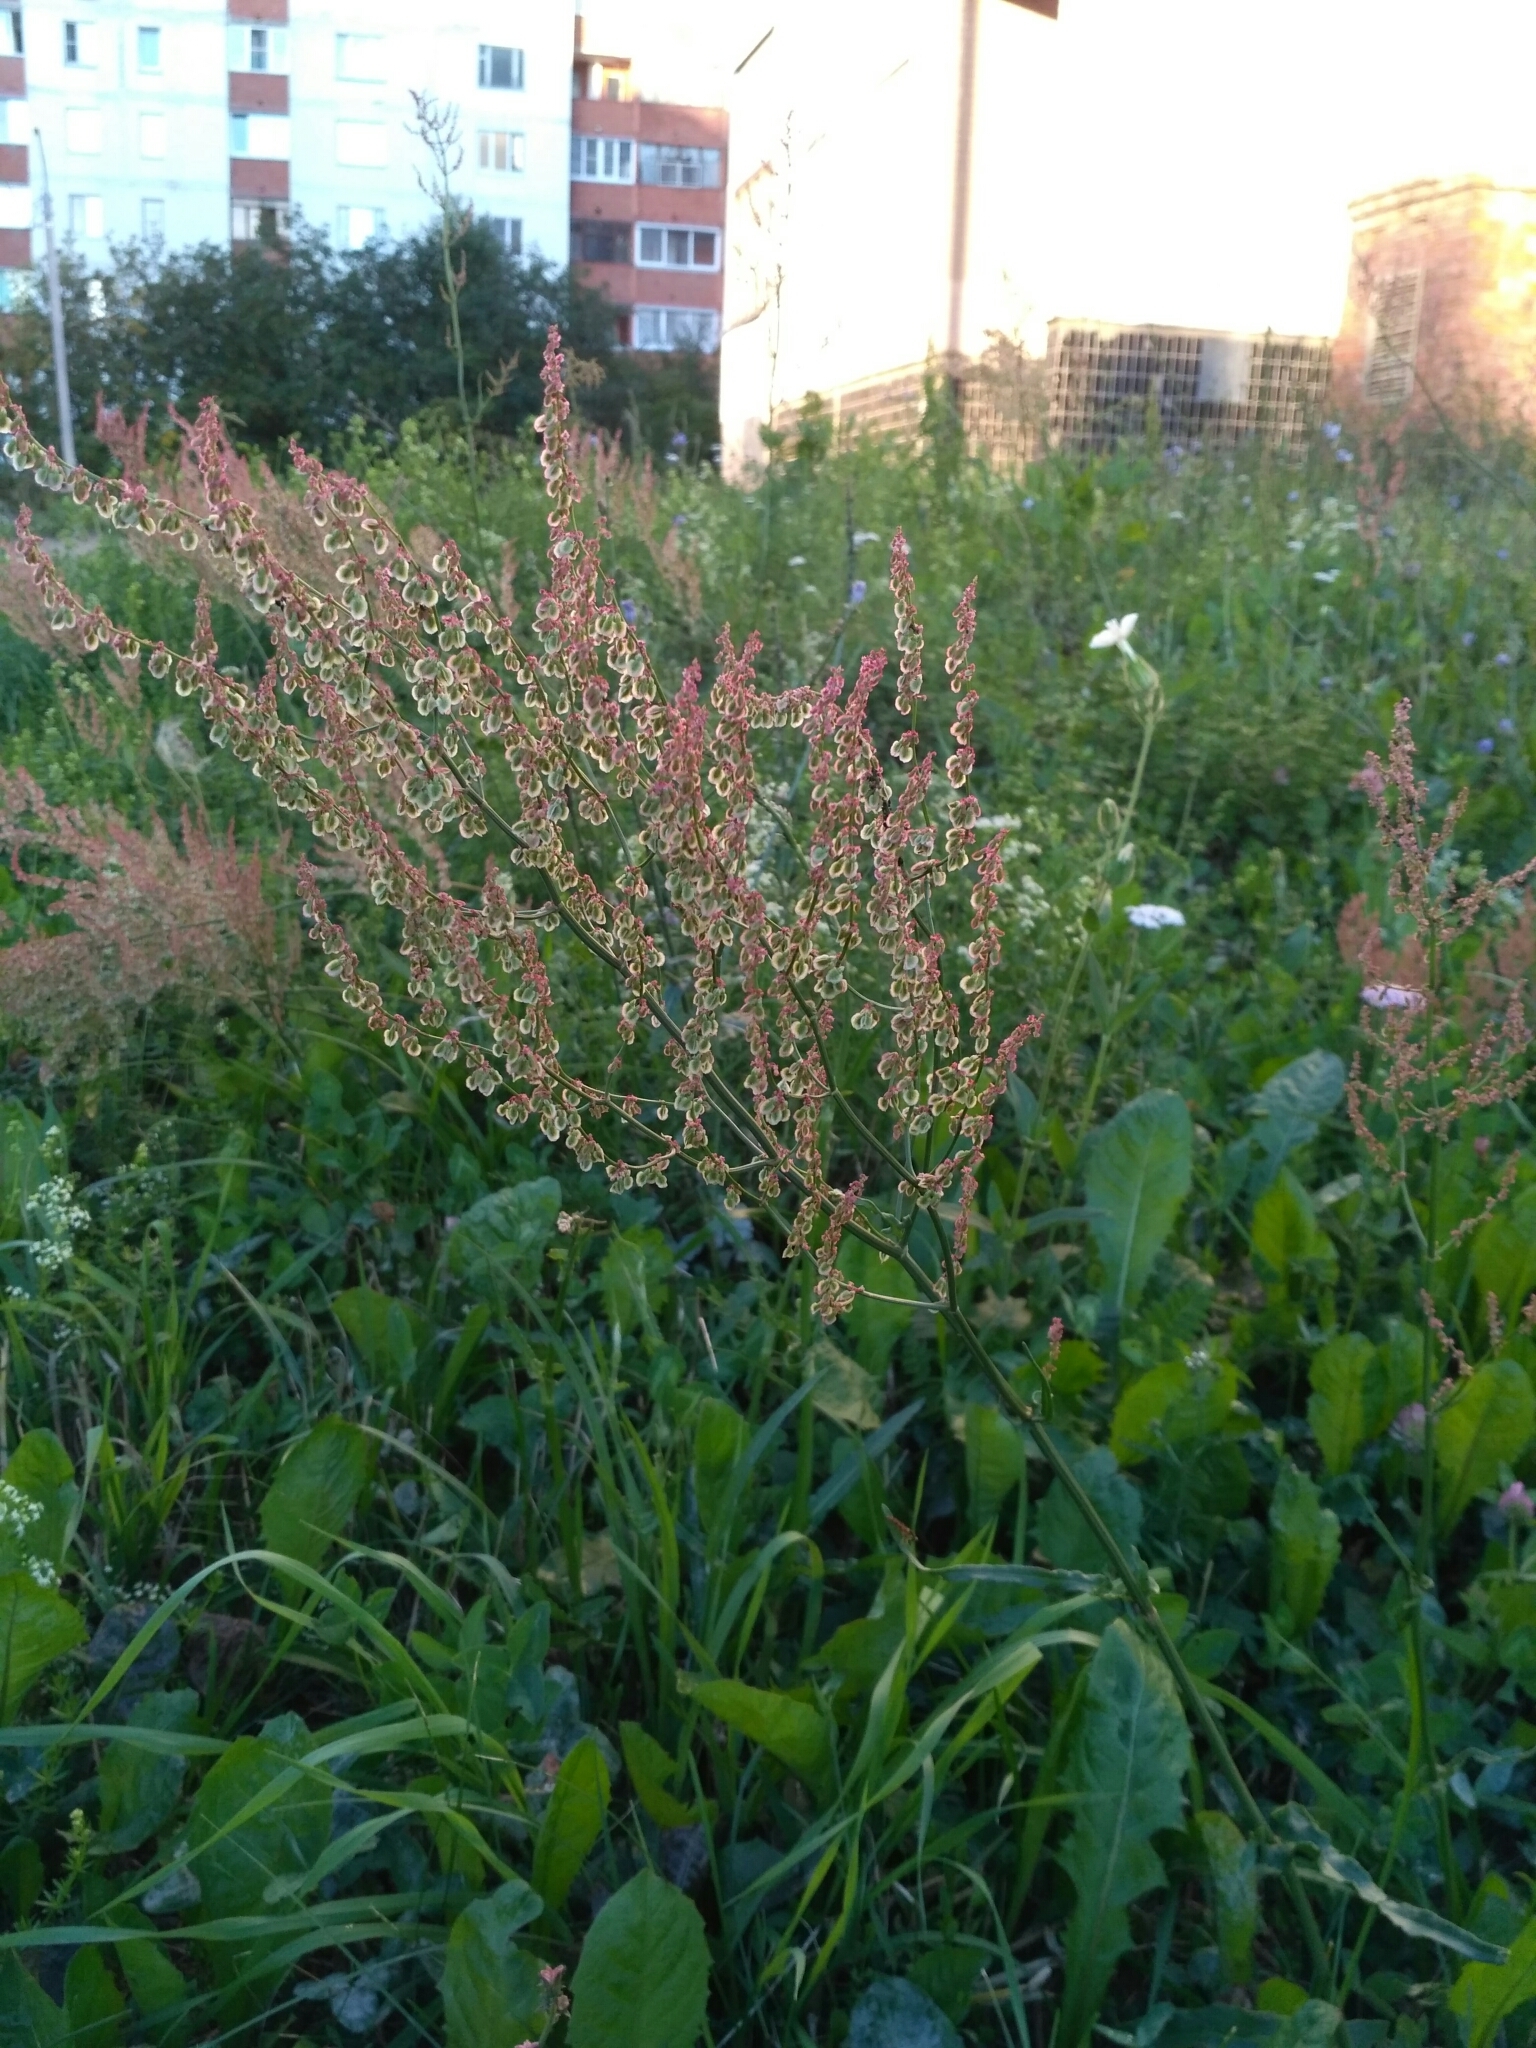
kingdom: Plantae
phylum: Tracheophyta
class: Magnoliopsida
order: Caryophyllales
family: Polygonaceae
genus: Rumex
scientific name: Rumex thyrsiflorus
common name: Garden sorrel
